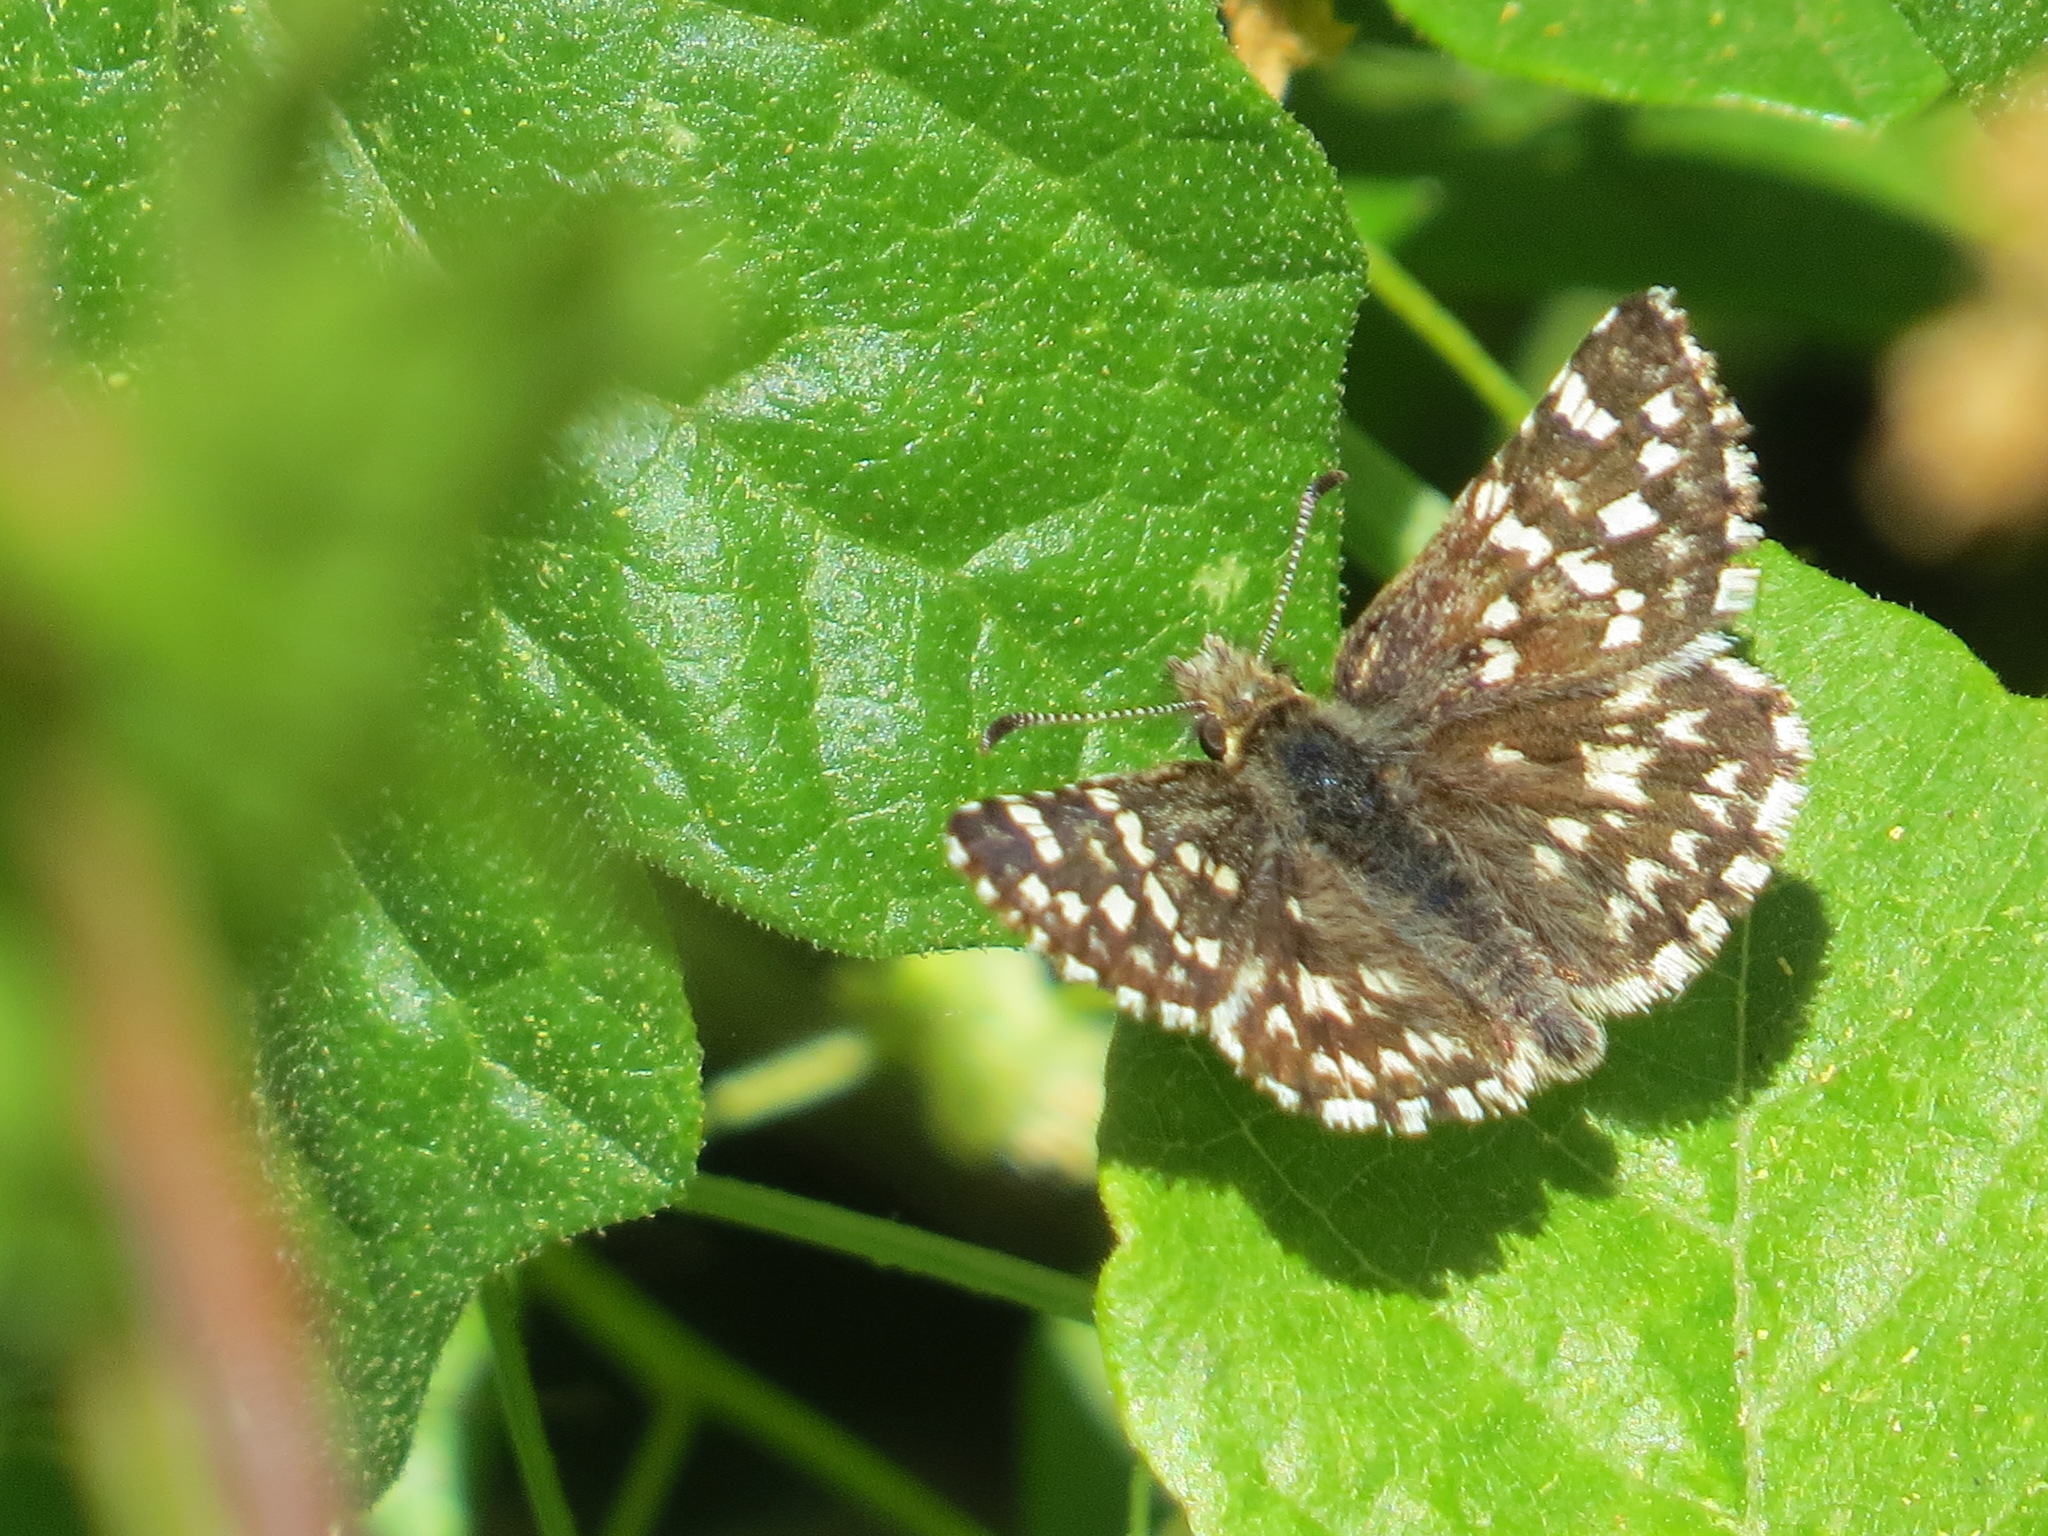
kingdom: Animalia
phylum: Arthropoda
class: Insecta
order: Lepidoptera
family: Hesperiidae
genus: Pyrgus
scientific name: Pyrgus ruralis
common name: Two-banded checkered-skipper
